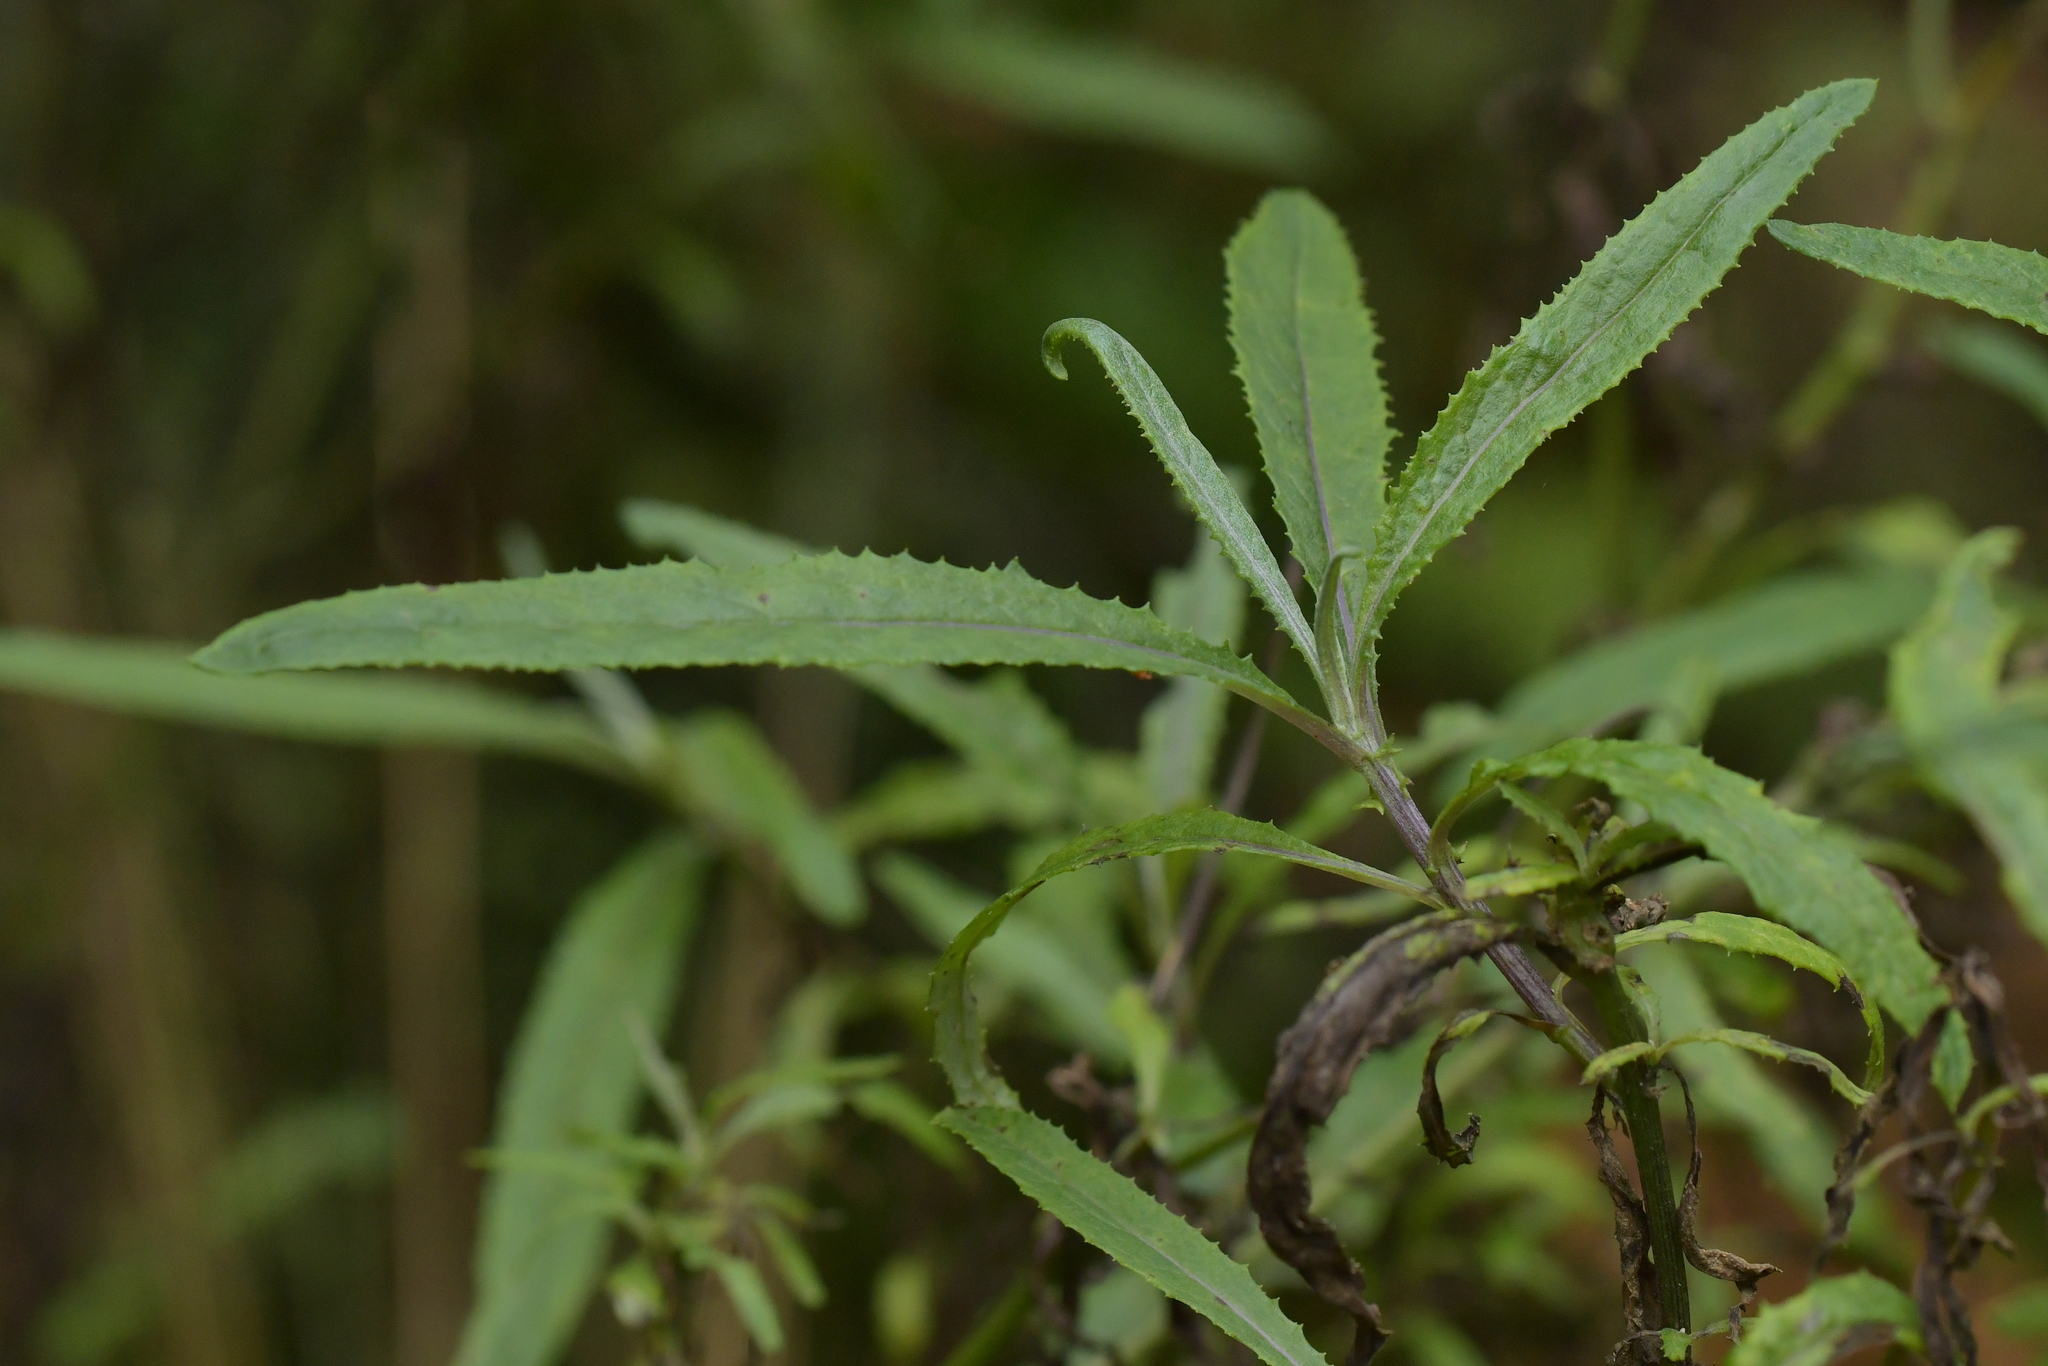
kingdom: Plantae
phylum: Tracheophyta
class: Magnoliopsida
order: Asterales
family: Asteraceae
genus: Senecio
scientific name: Senecio minimus
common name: Toothed fireweed
